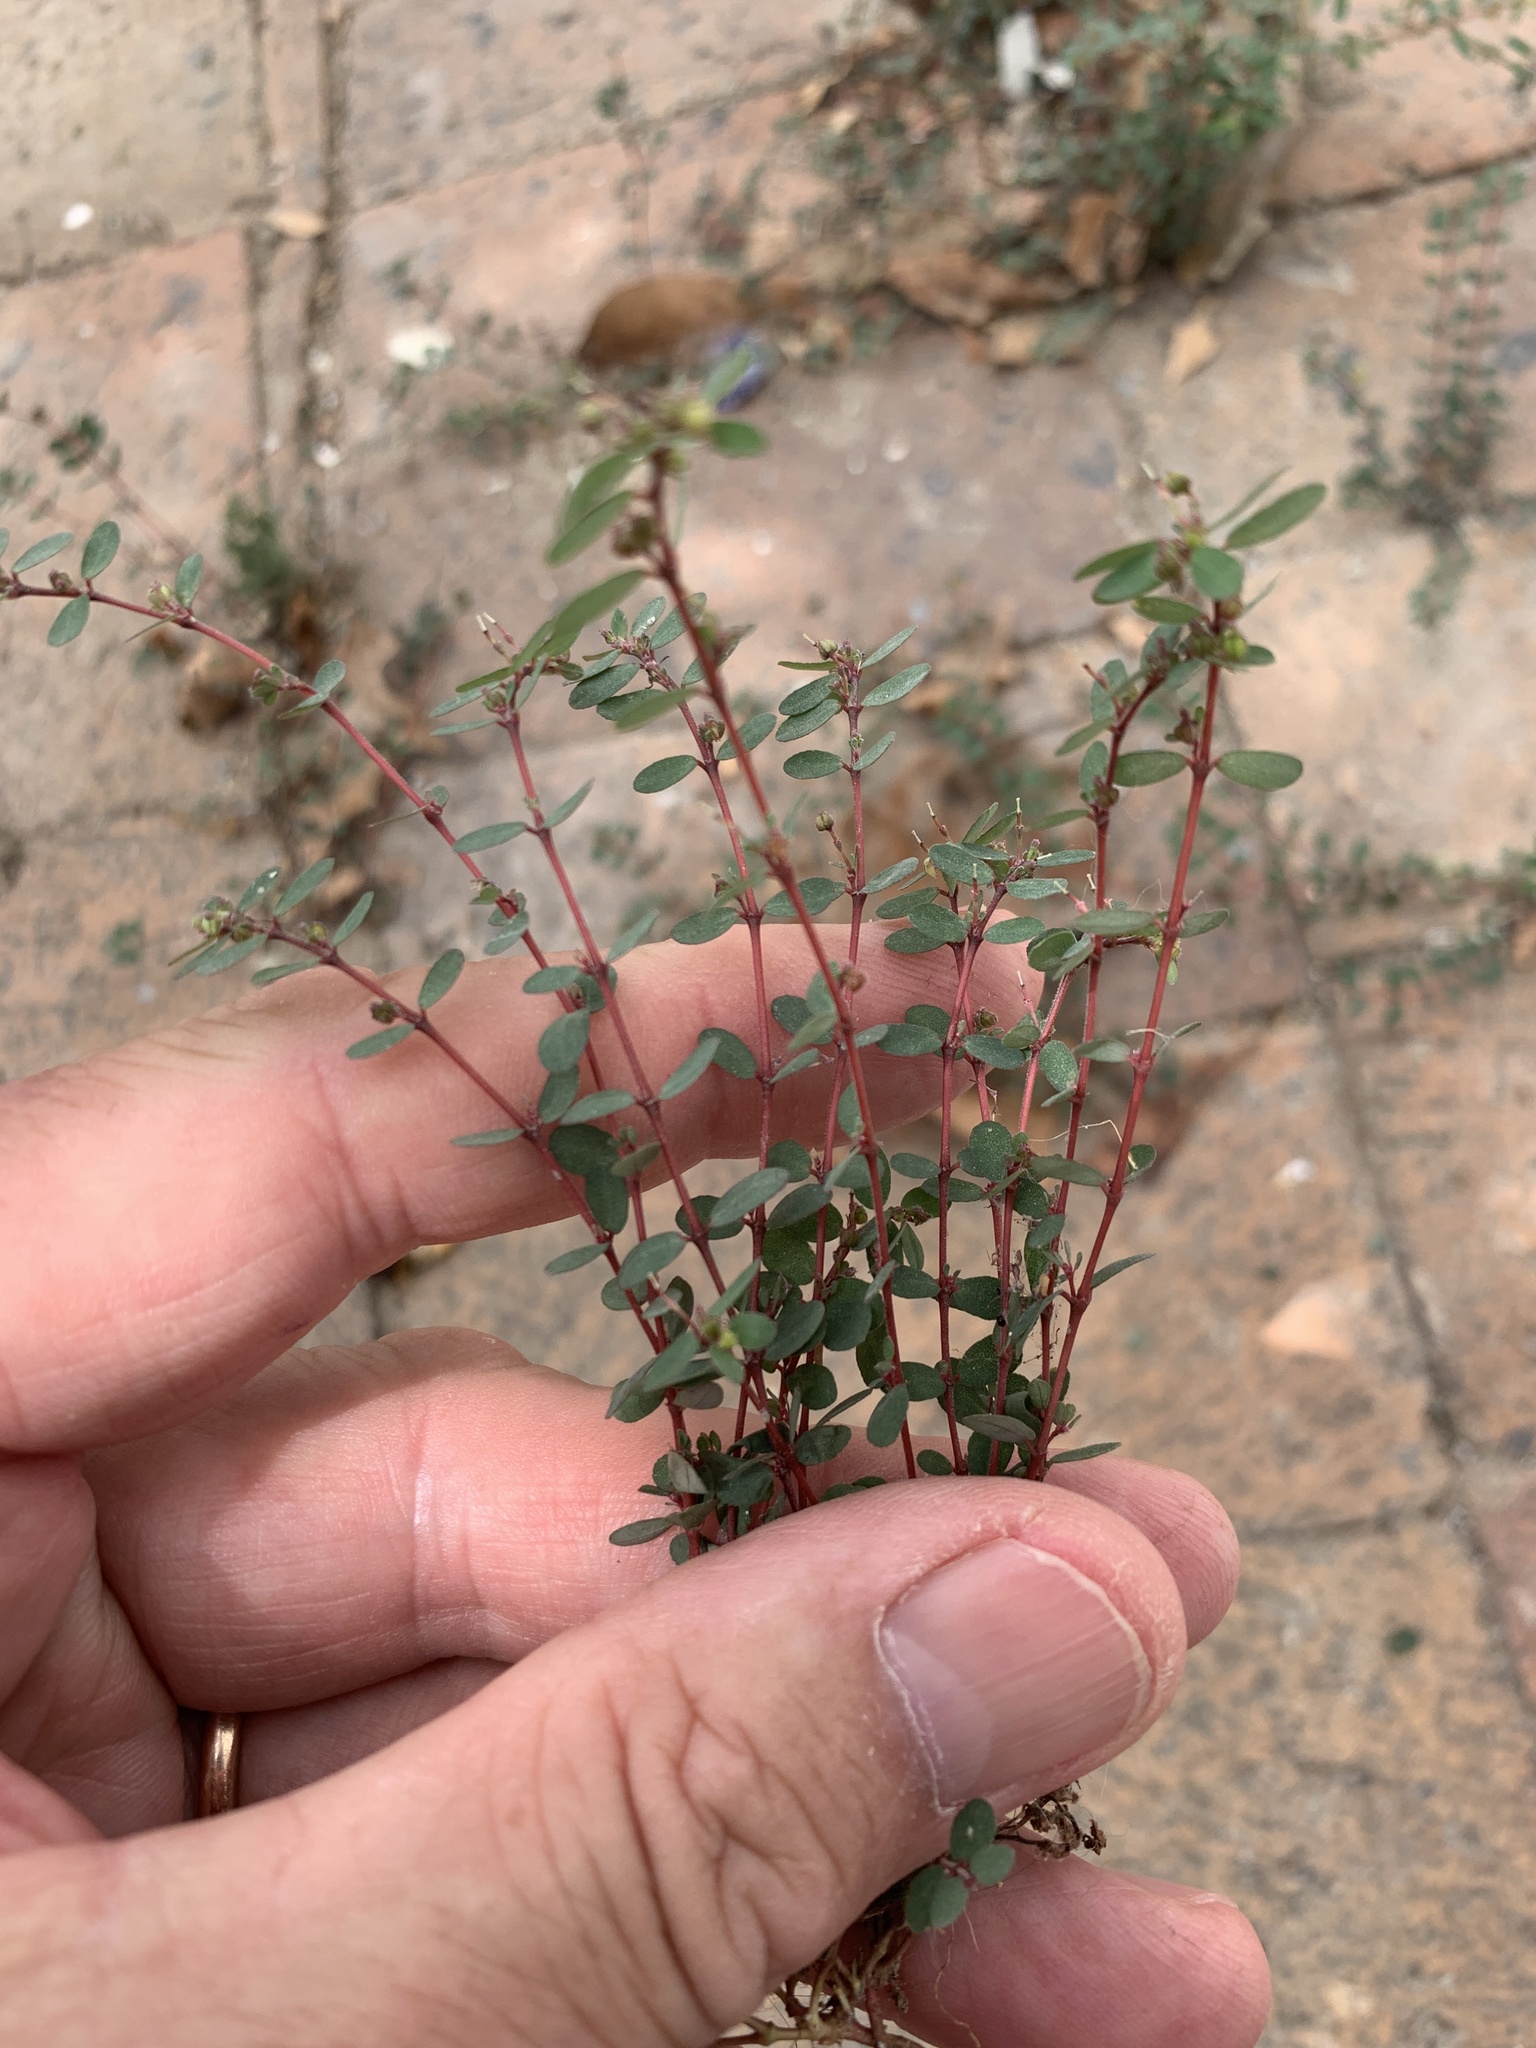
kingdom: Plantae
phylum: Tracheophyta
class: Magnoliopsida
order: Malpighiales
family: Euphorbiaceae
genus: Euphorbia
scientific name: Euphorbia prostrata
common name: Prostrate sandmat
